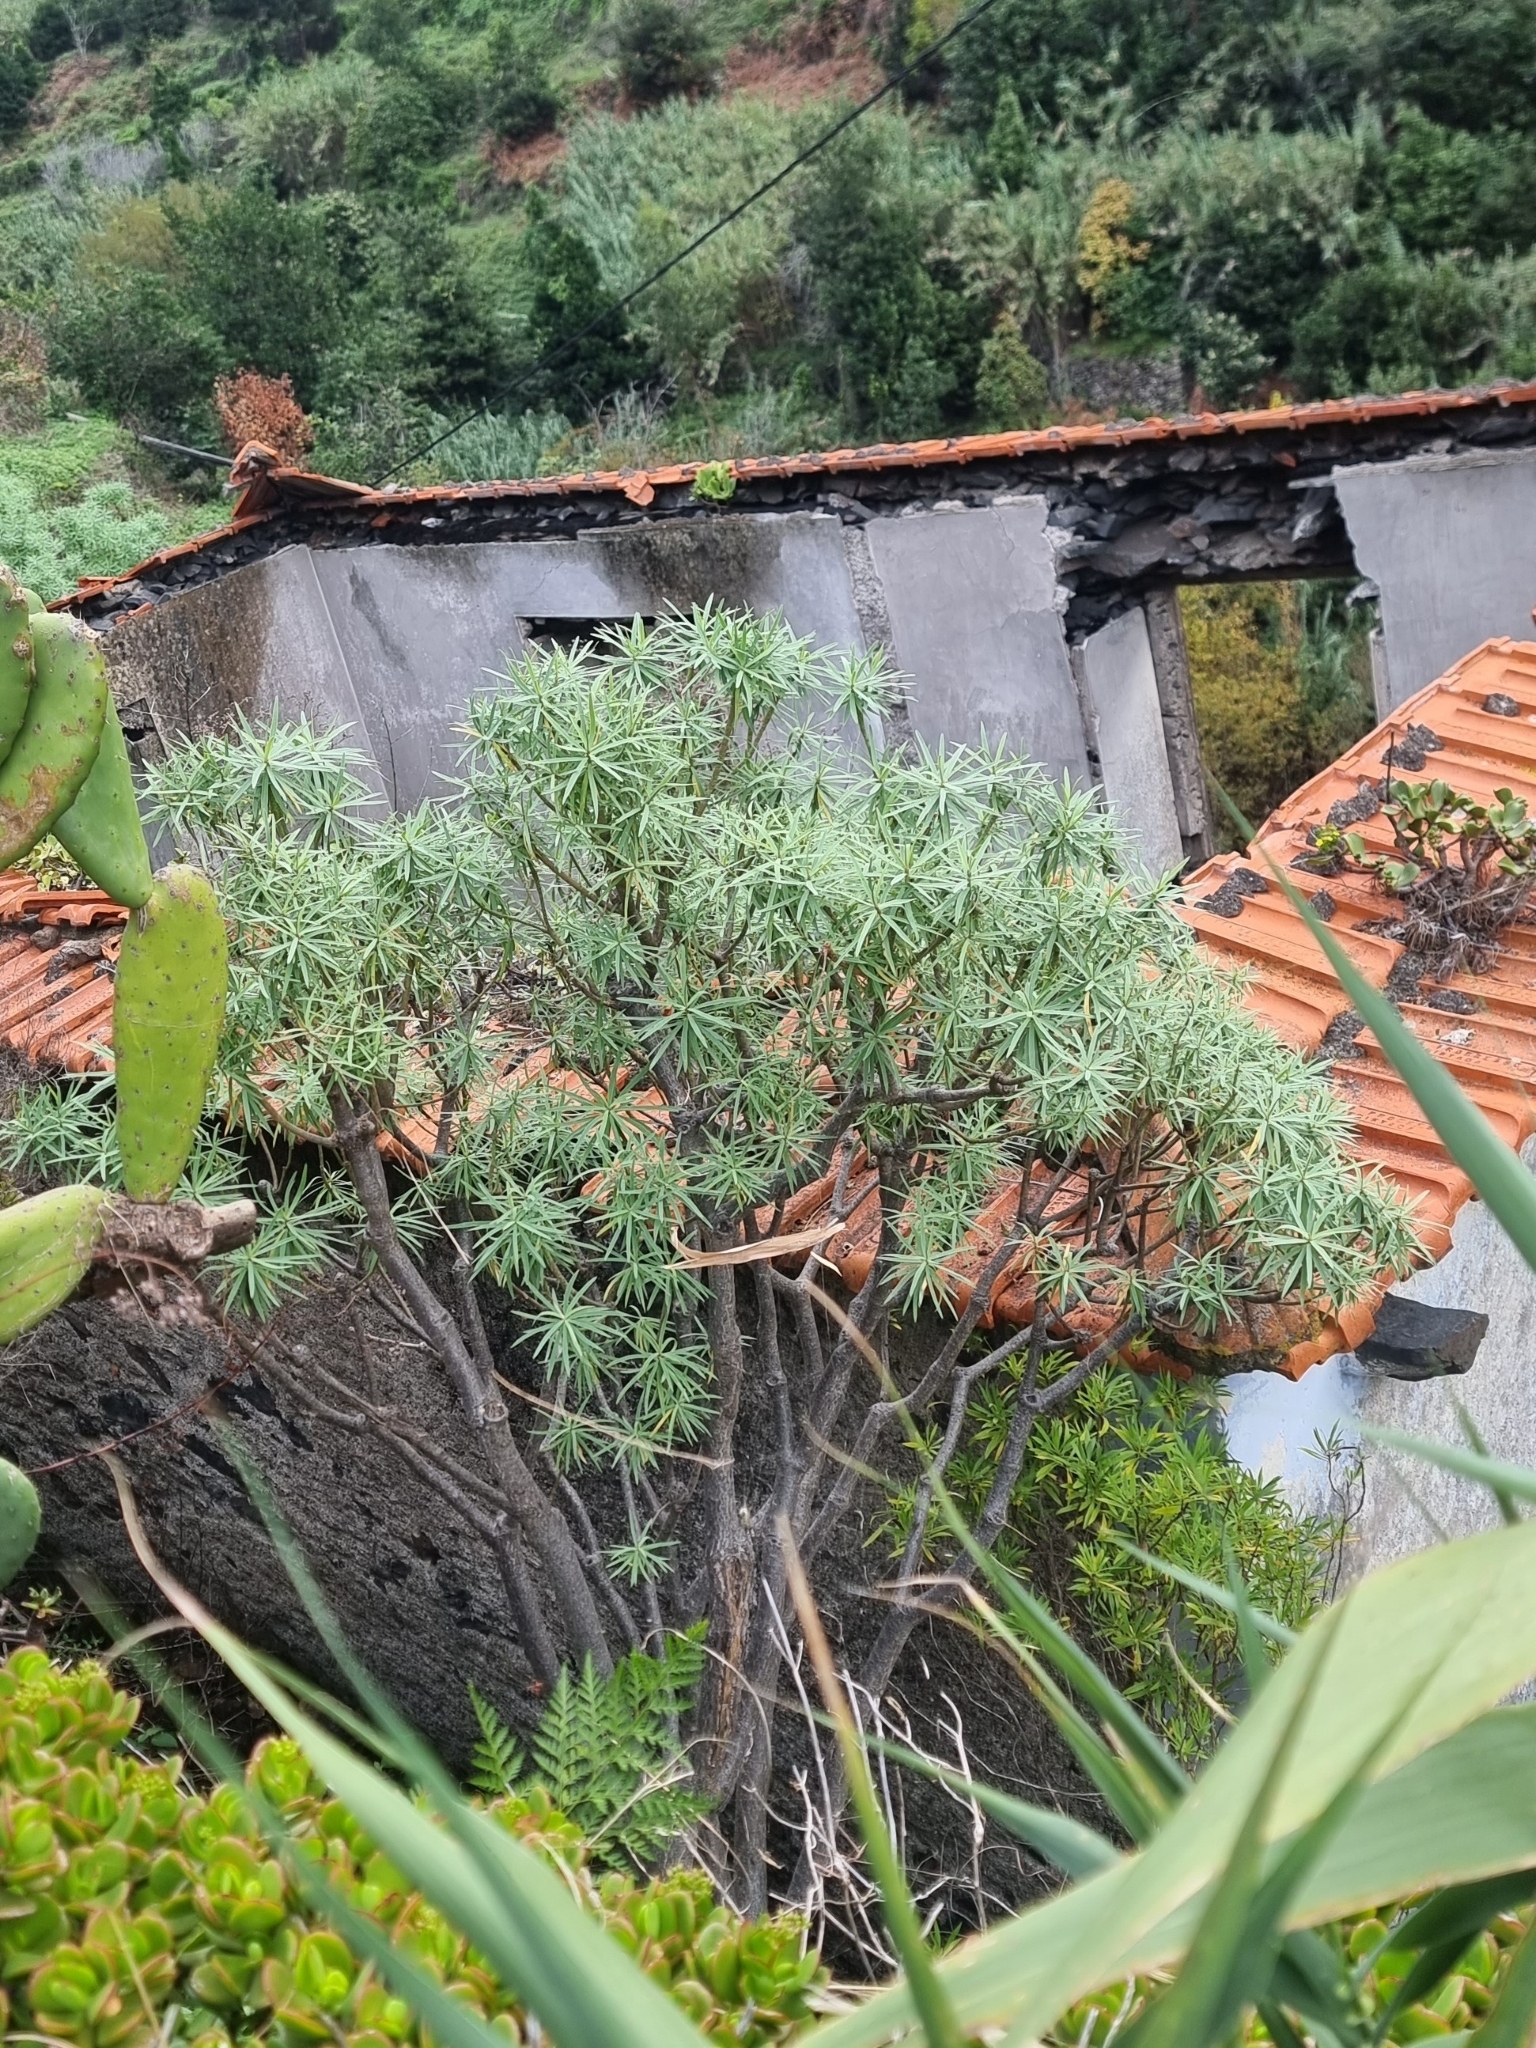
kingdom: Plantae
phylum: Tracheophyta
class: Magnoliopsida
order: Malpighiales
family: Euphorbiaceae
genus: Euphorbia
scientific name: Euphorbia piscatoria
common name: Fish-stunning spurge
